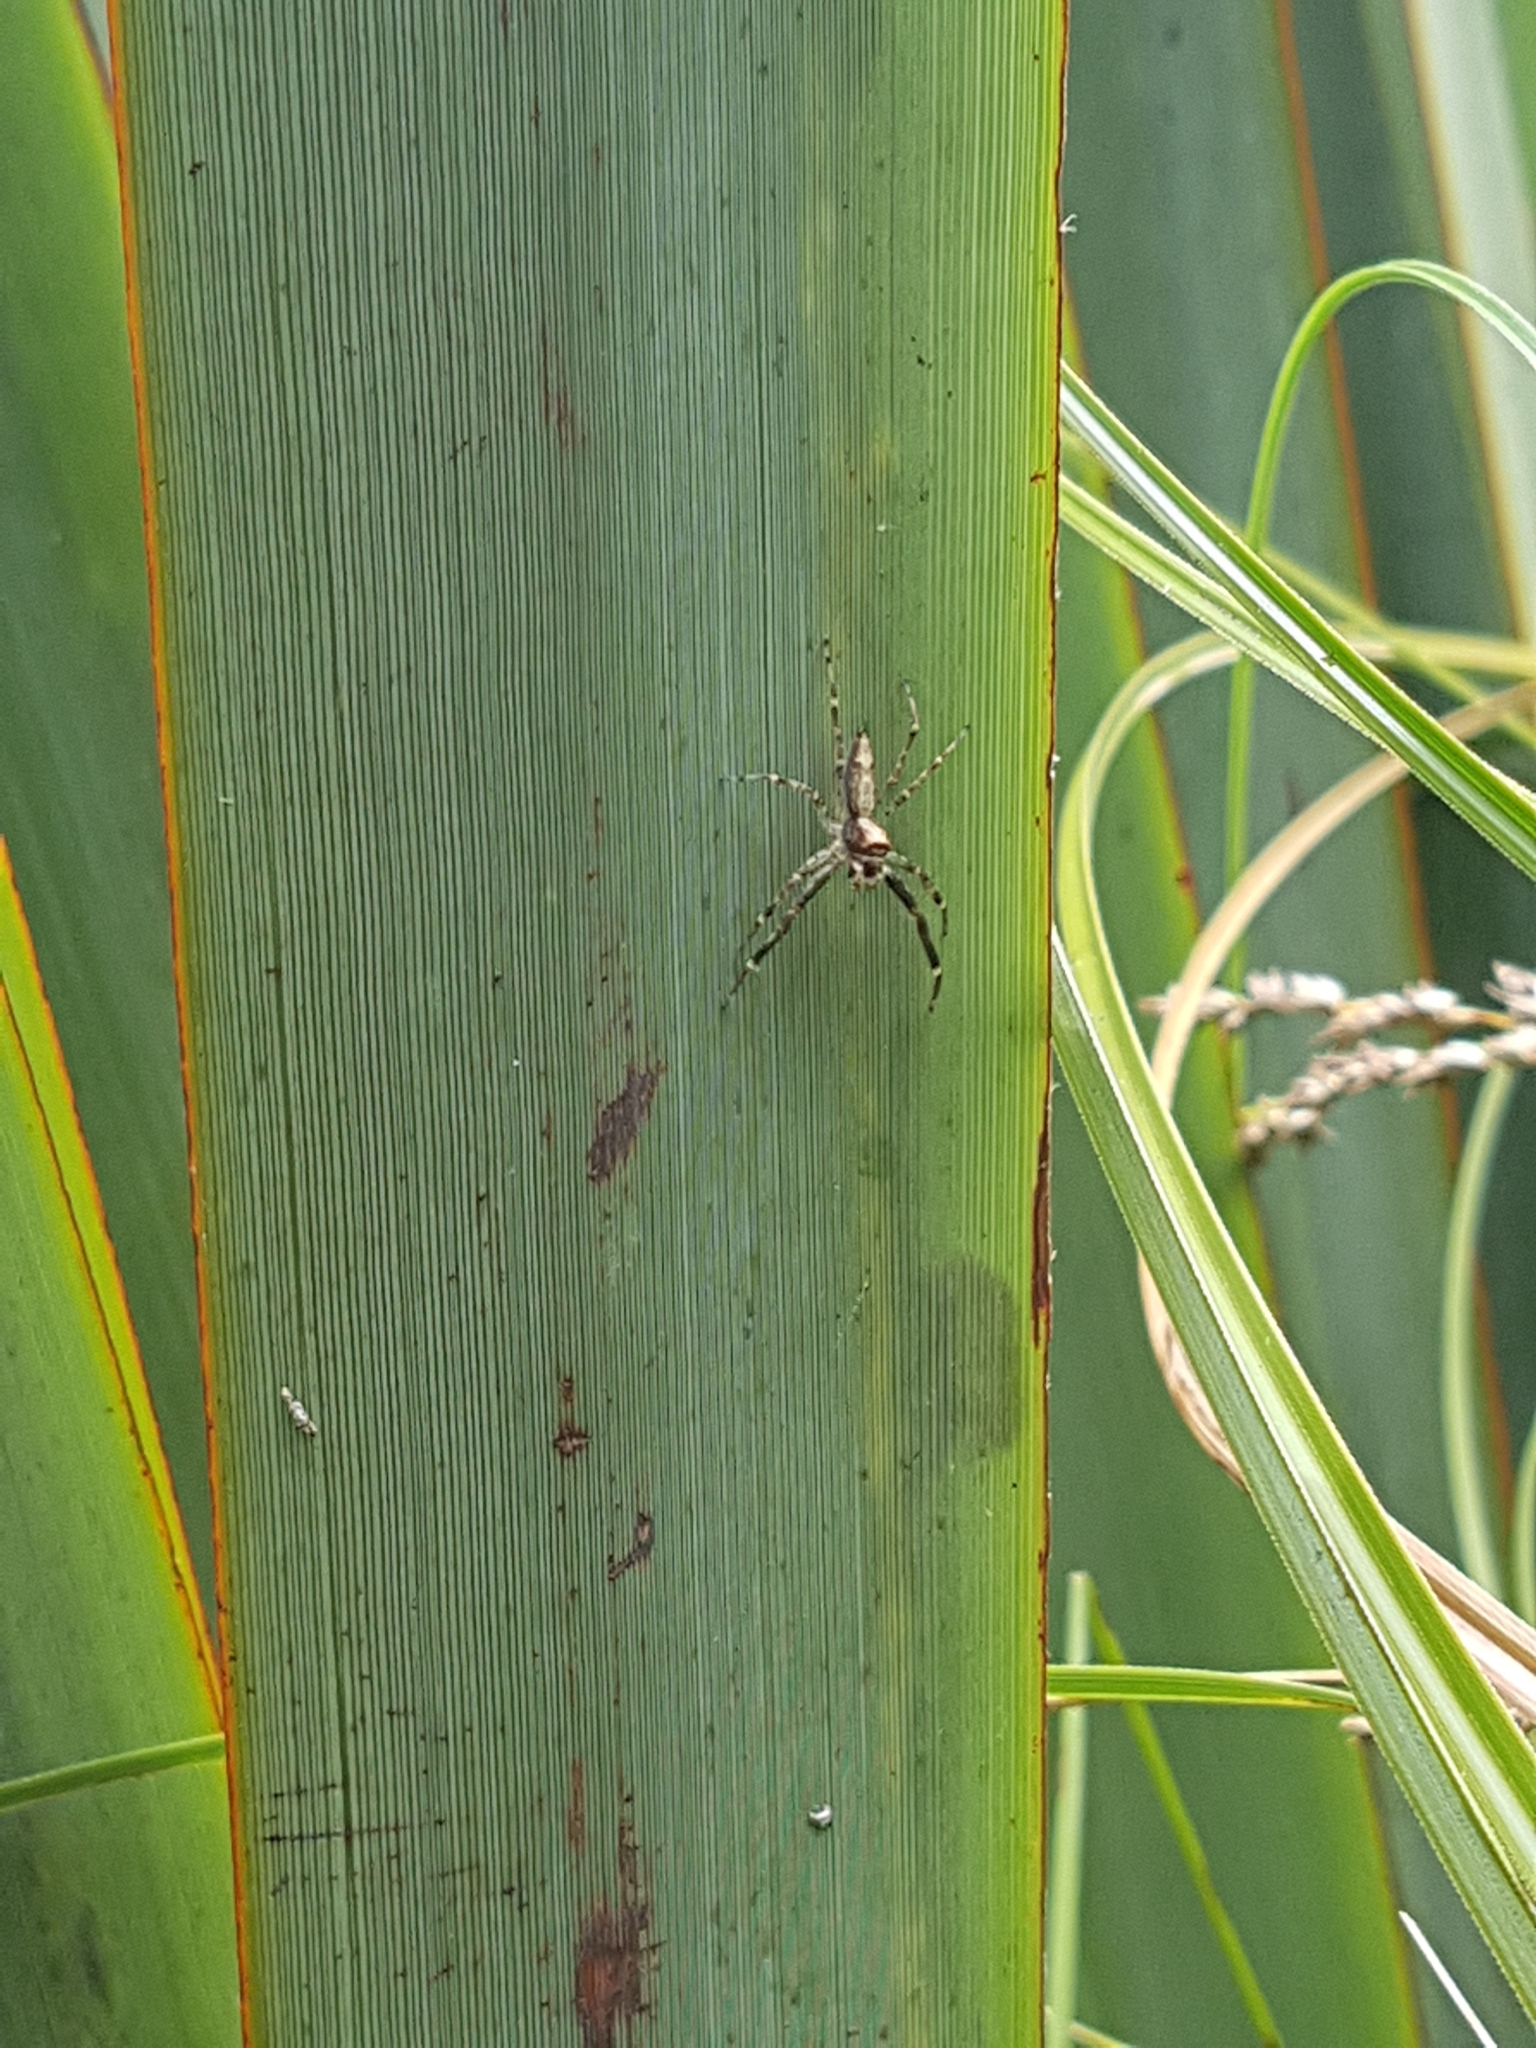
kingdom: Animalia
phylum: Arthropoda
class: Arachnida
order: Araneae
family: Salticidae
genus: Helpis
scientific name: Helpis minitabunda
